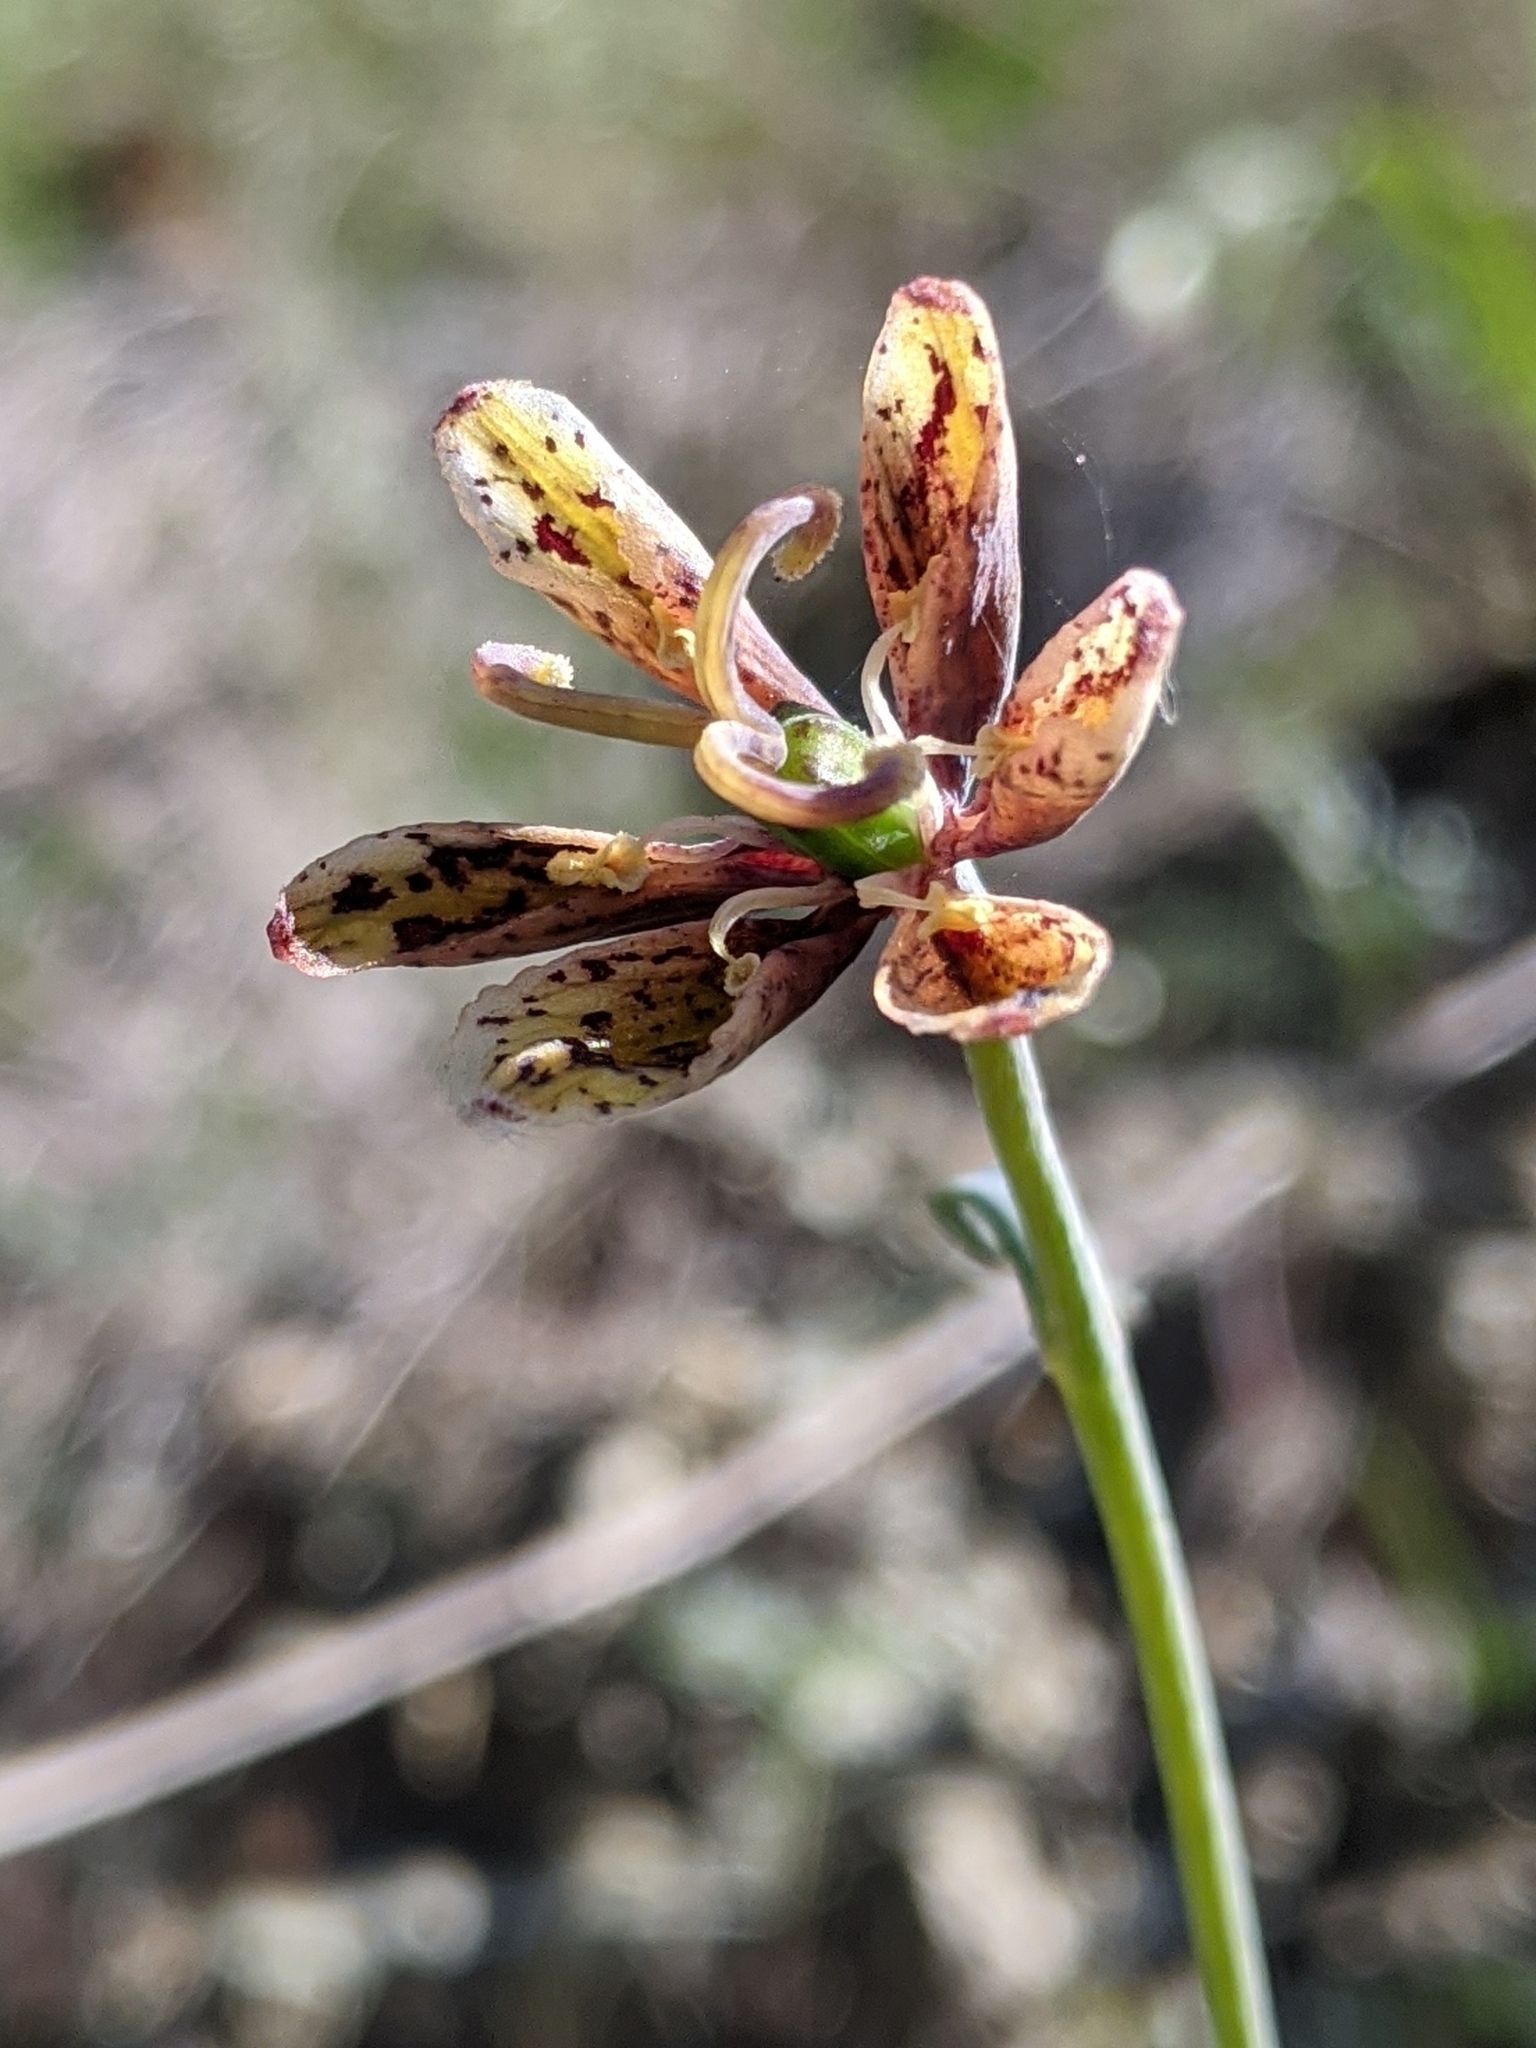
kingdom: Plantae
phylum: Tracheophyta
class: Liliopsida
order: Liliales
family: Liliaceae
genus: Fritillaria
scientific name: Fritillaria ojaiensis
